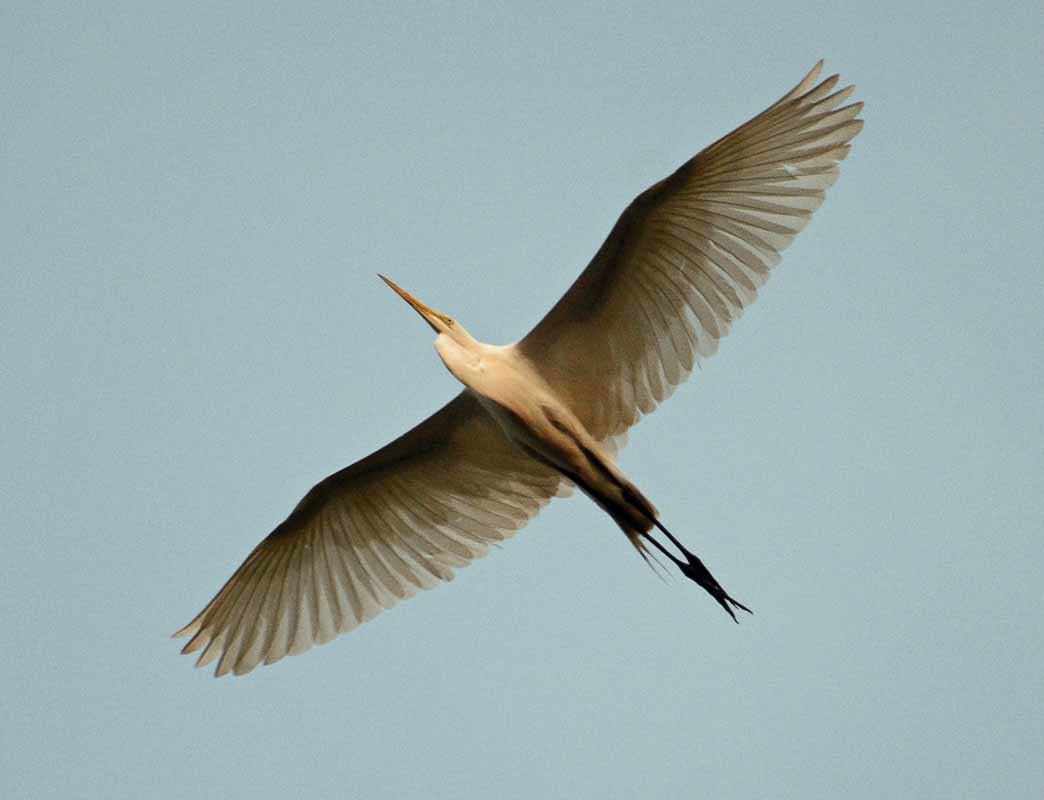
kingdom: Animalia
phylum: Chordata
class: Aves
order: Pelecaniformes
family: Ardeidae
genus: Ardea
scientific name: Ardea alba
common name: Great egret
